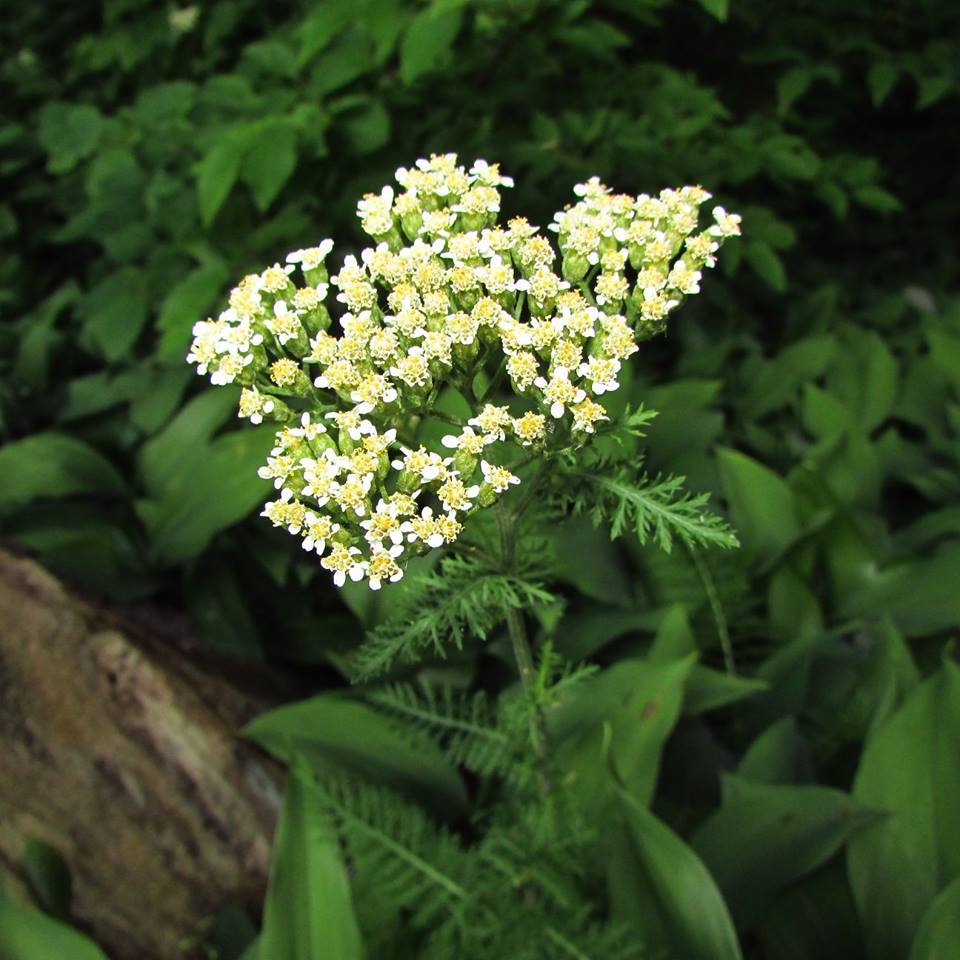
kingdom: Plantae
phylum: Tracheophyta
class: Magnoliopsida
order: Asterales
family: Asteraceae
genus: Achillea
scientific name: Achillea millefolium
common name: Yarrow
